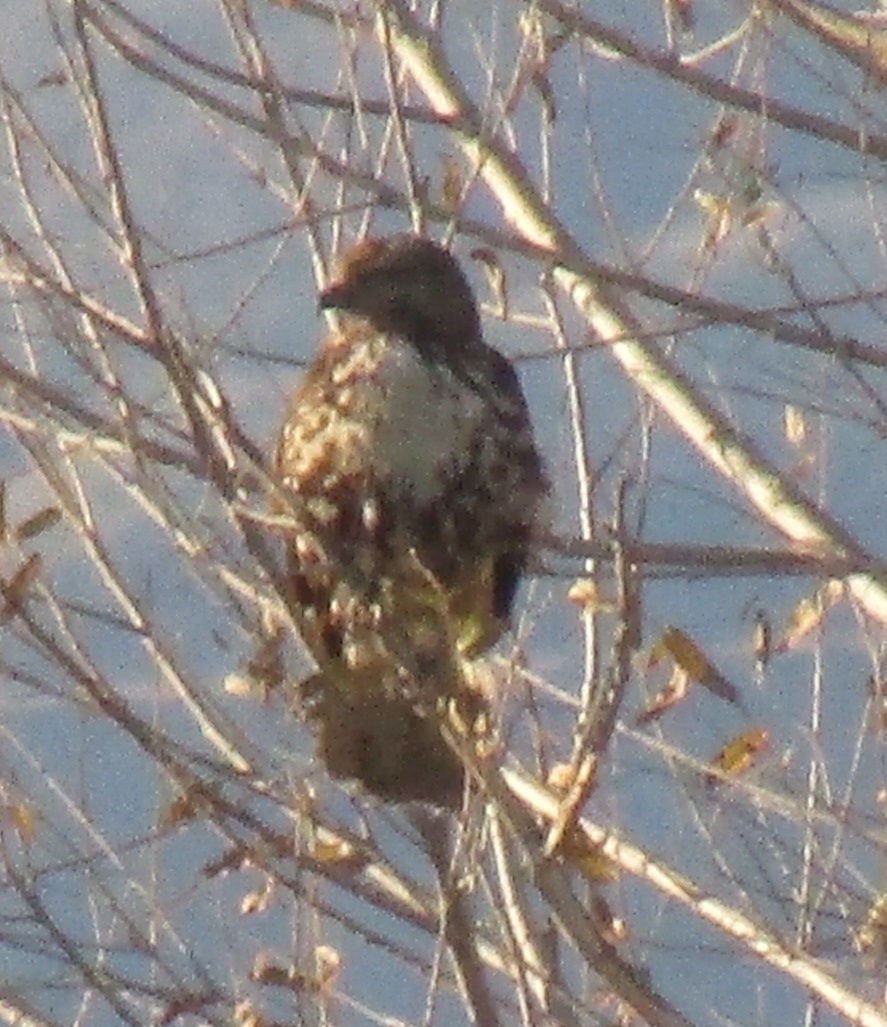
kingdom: Animalia
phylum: Chordata
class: Aves
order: Accipitriformes
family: Accipitridae
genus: Buteo
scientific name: Buteo jamaicensis
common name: Red-tailed hawk
